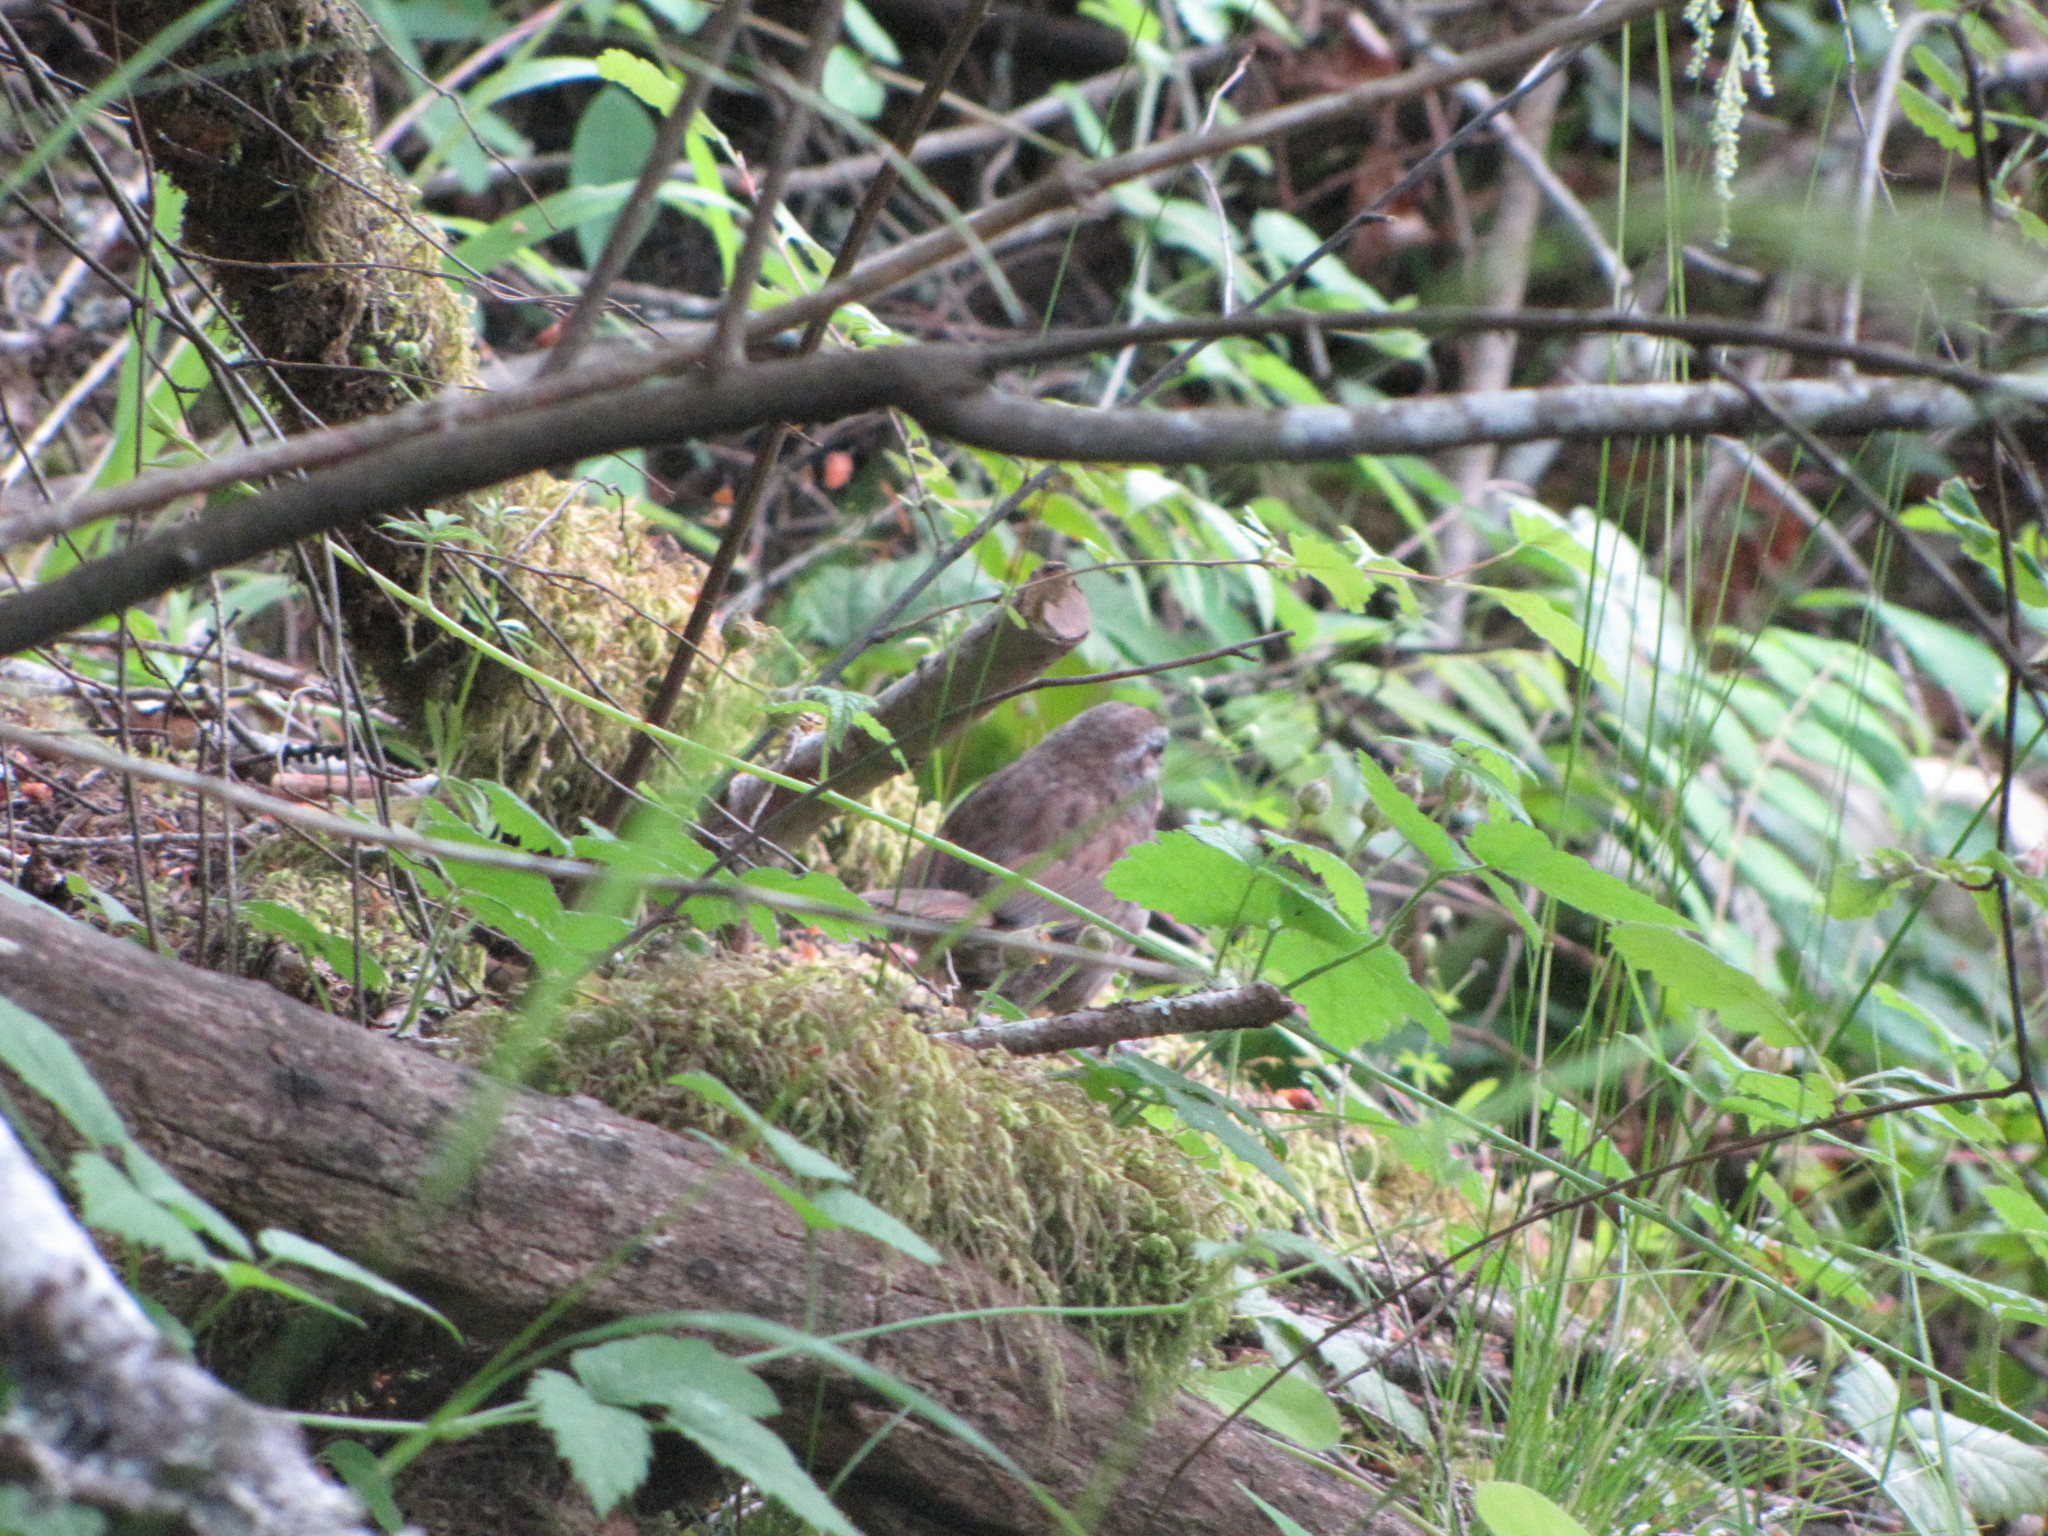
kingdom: Animalia
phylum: Chordata
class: Aves
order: Passeriformes
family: Passerellidae
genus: Melospiza
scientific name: Melospiza melodia
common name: Song sparrow
